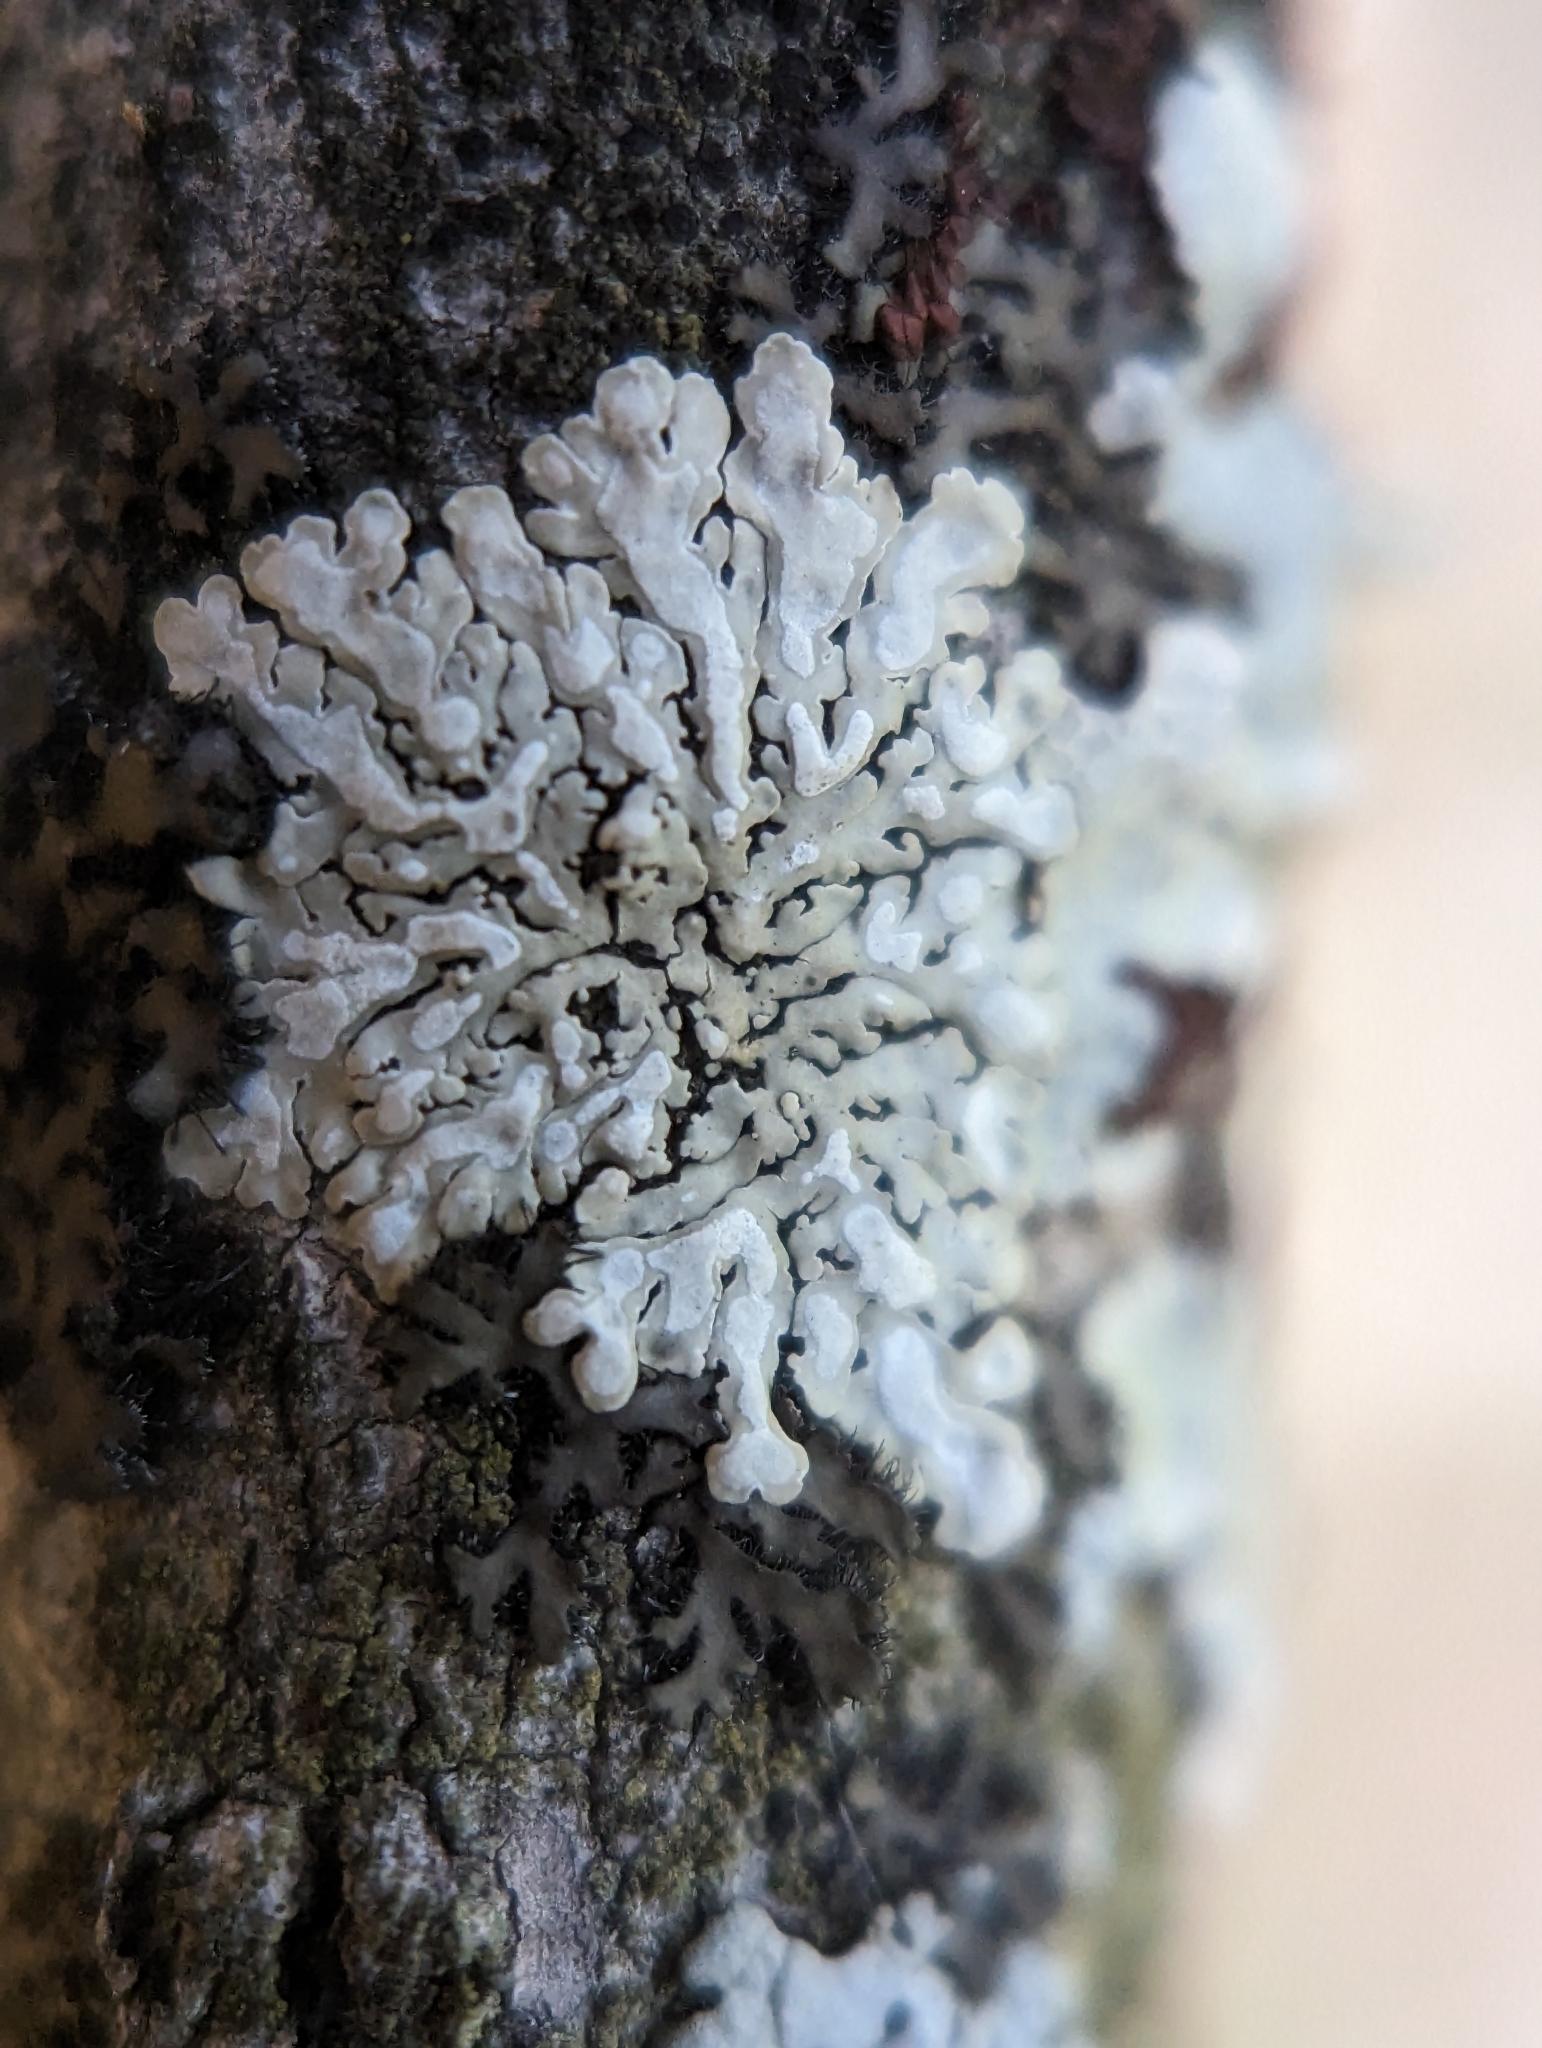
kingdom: Fungi
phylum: Ascomycota
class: Lecanoromycetes
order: Caliciales
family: Caliciaceae
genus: Pyxine
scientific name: Pyxine subcinerea
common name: Mustard lichen
